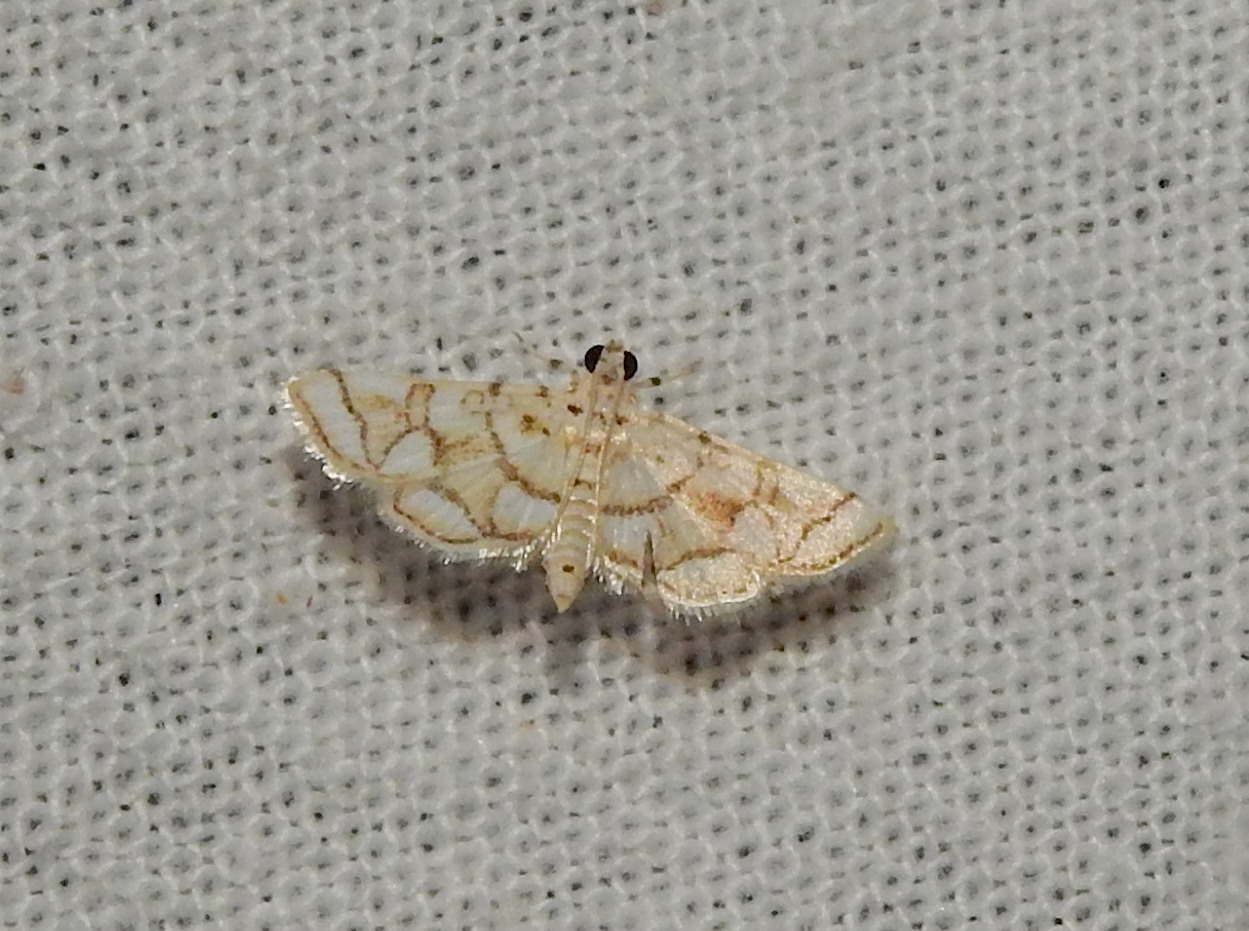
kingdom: Animalia
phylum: Arthropoda
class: Insecta
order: Lepidoptera
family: Crambidae
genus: Elophila
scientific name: Elophila
